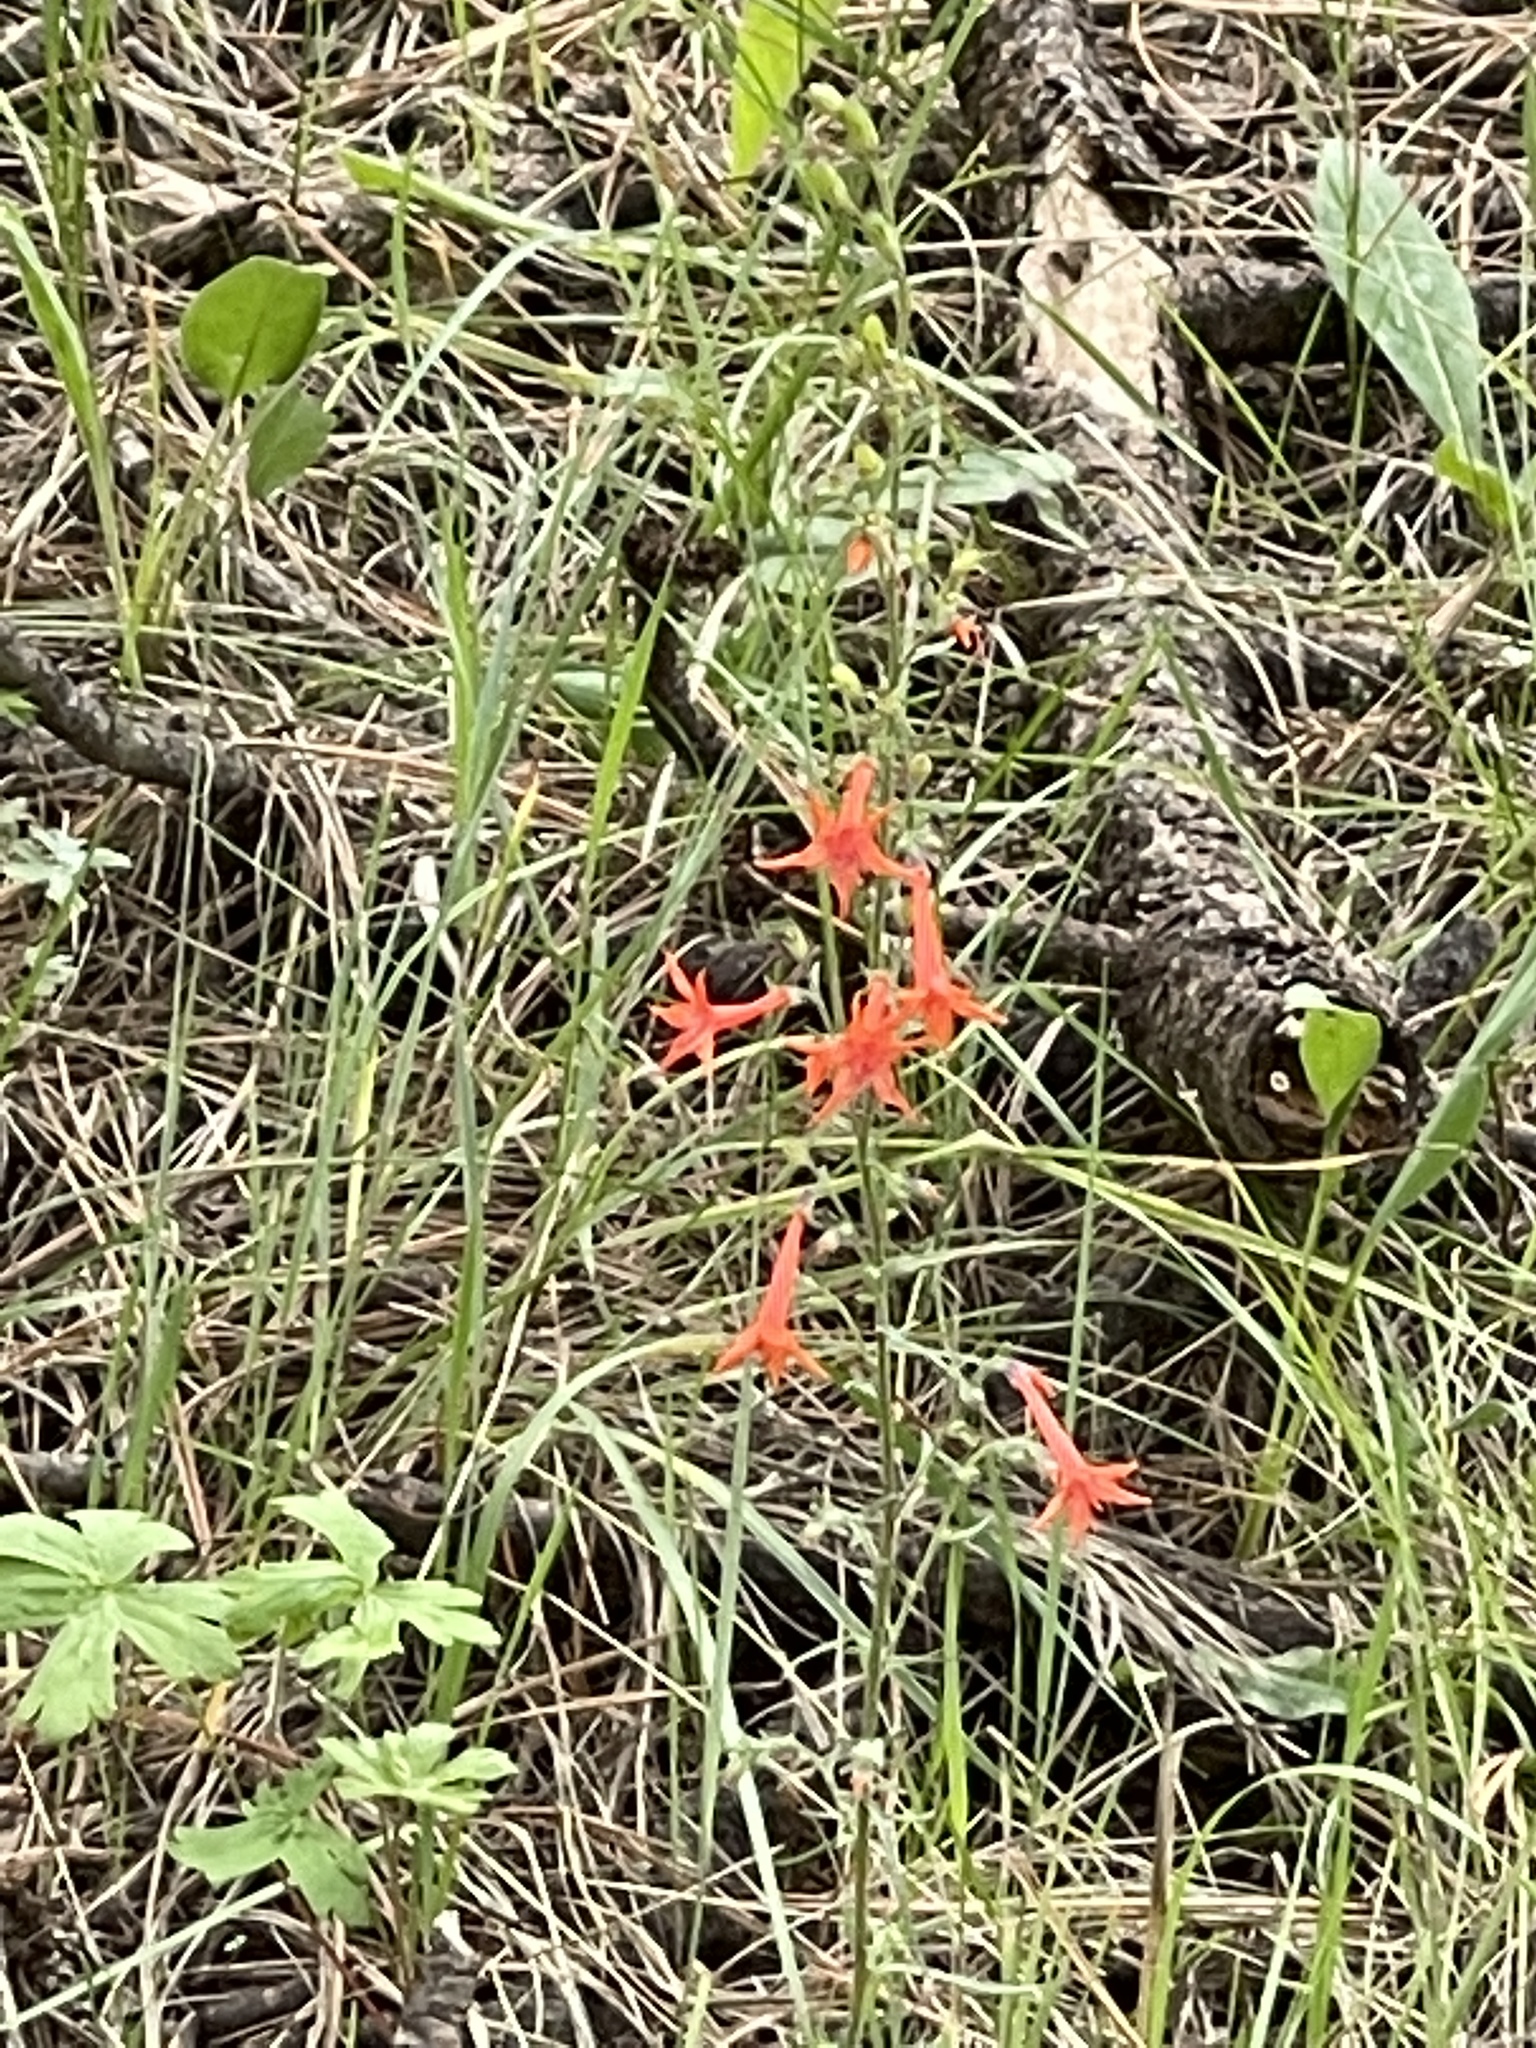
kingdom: Plantae
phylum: Tracheophyta
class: Magnoliopsida
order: Ericales
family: Polemoniaceae
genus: Ipomopsis
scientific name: Ipomopsis aggregata
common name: Scarlet gilia
